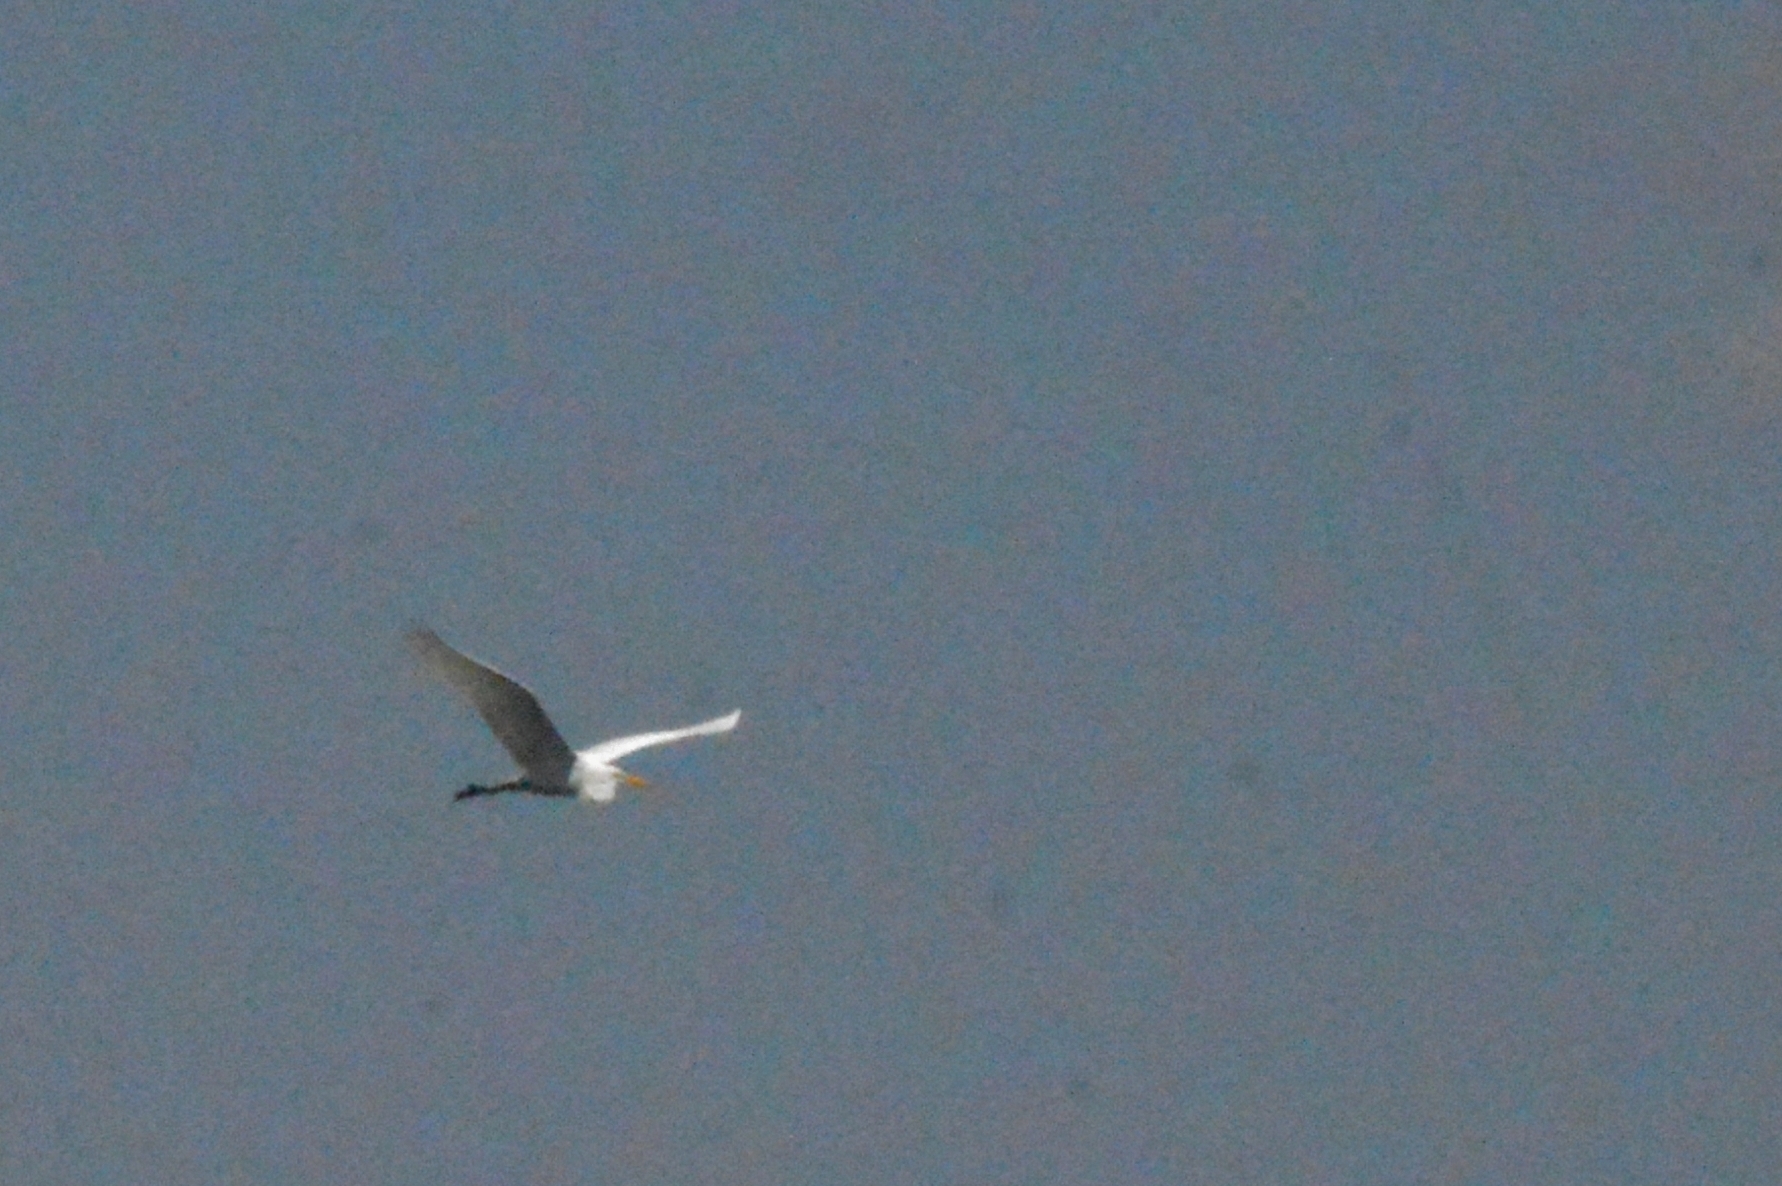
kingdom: Animalia
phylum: Chordata
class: Aves
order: Pelecaniformes
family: Ardeidae
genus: Ardea
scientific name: Ardea alba
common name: Great egret
